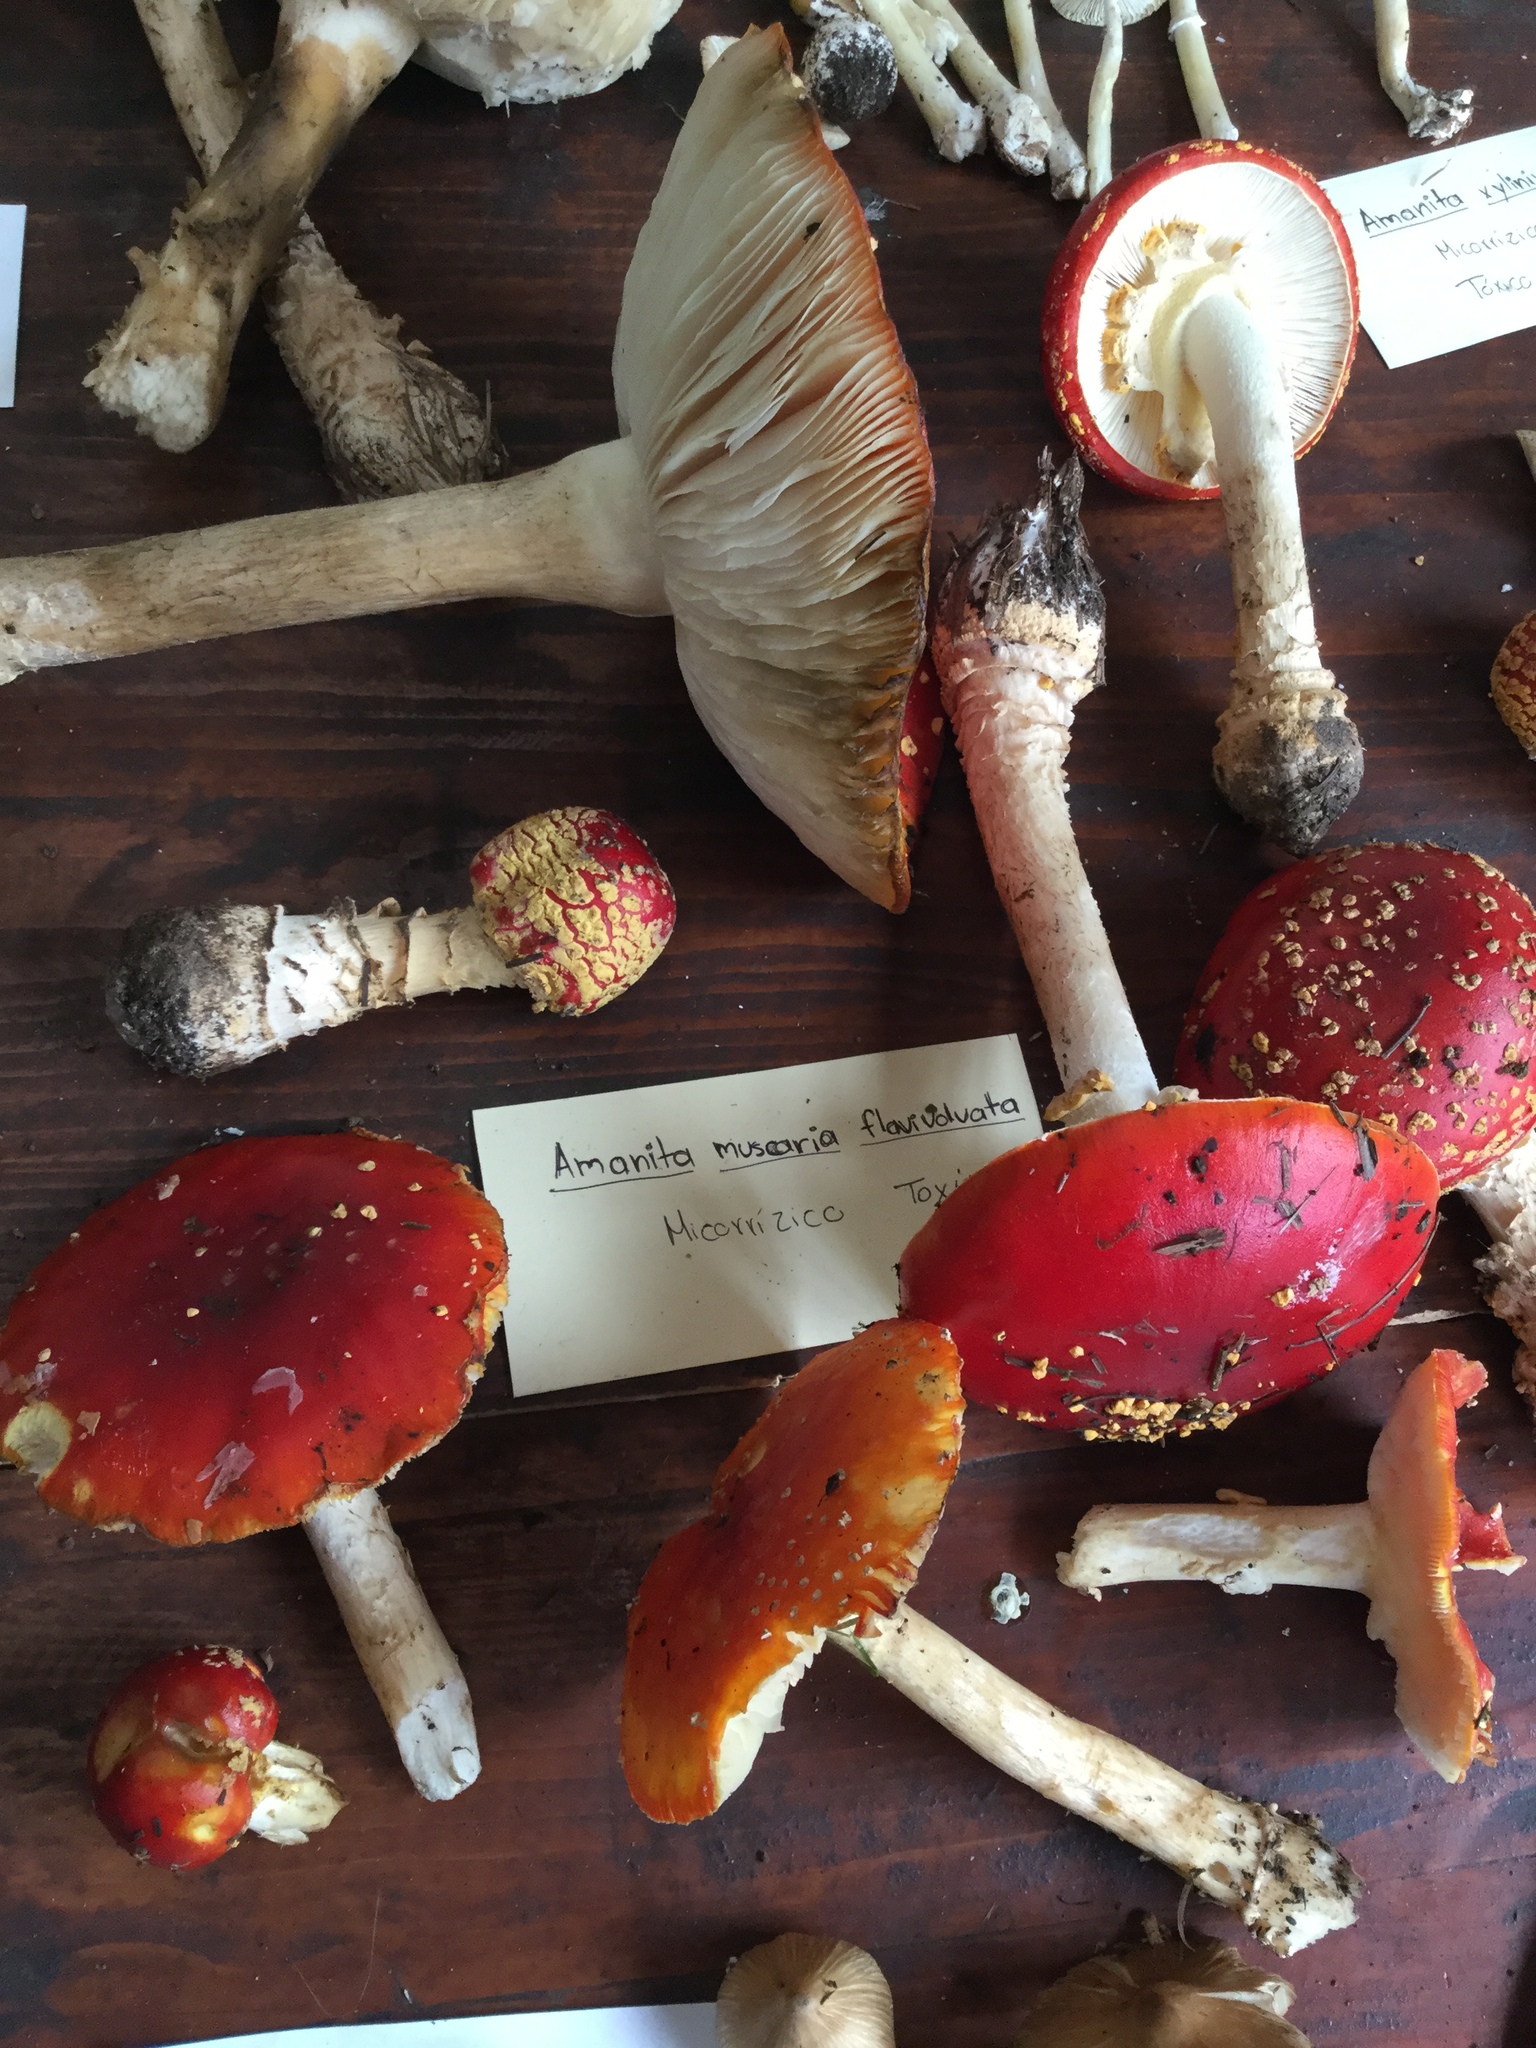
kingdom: Fungi
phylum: Basidiomycota
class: Agaricomycetes
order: Agaricales
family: Amanitaceae
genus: Amanita
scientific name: Amanita muscaria
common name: Fly agaric
